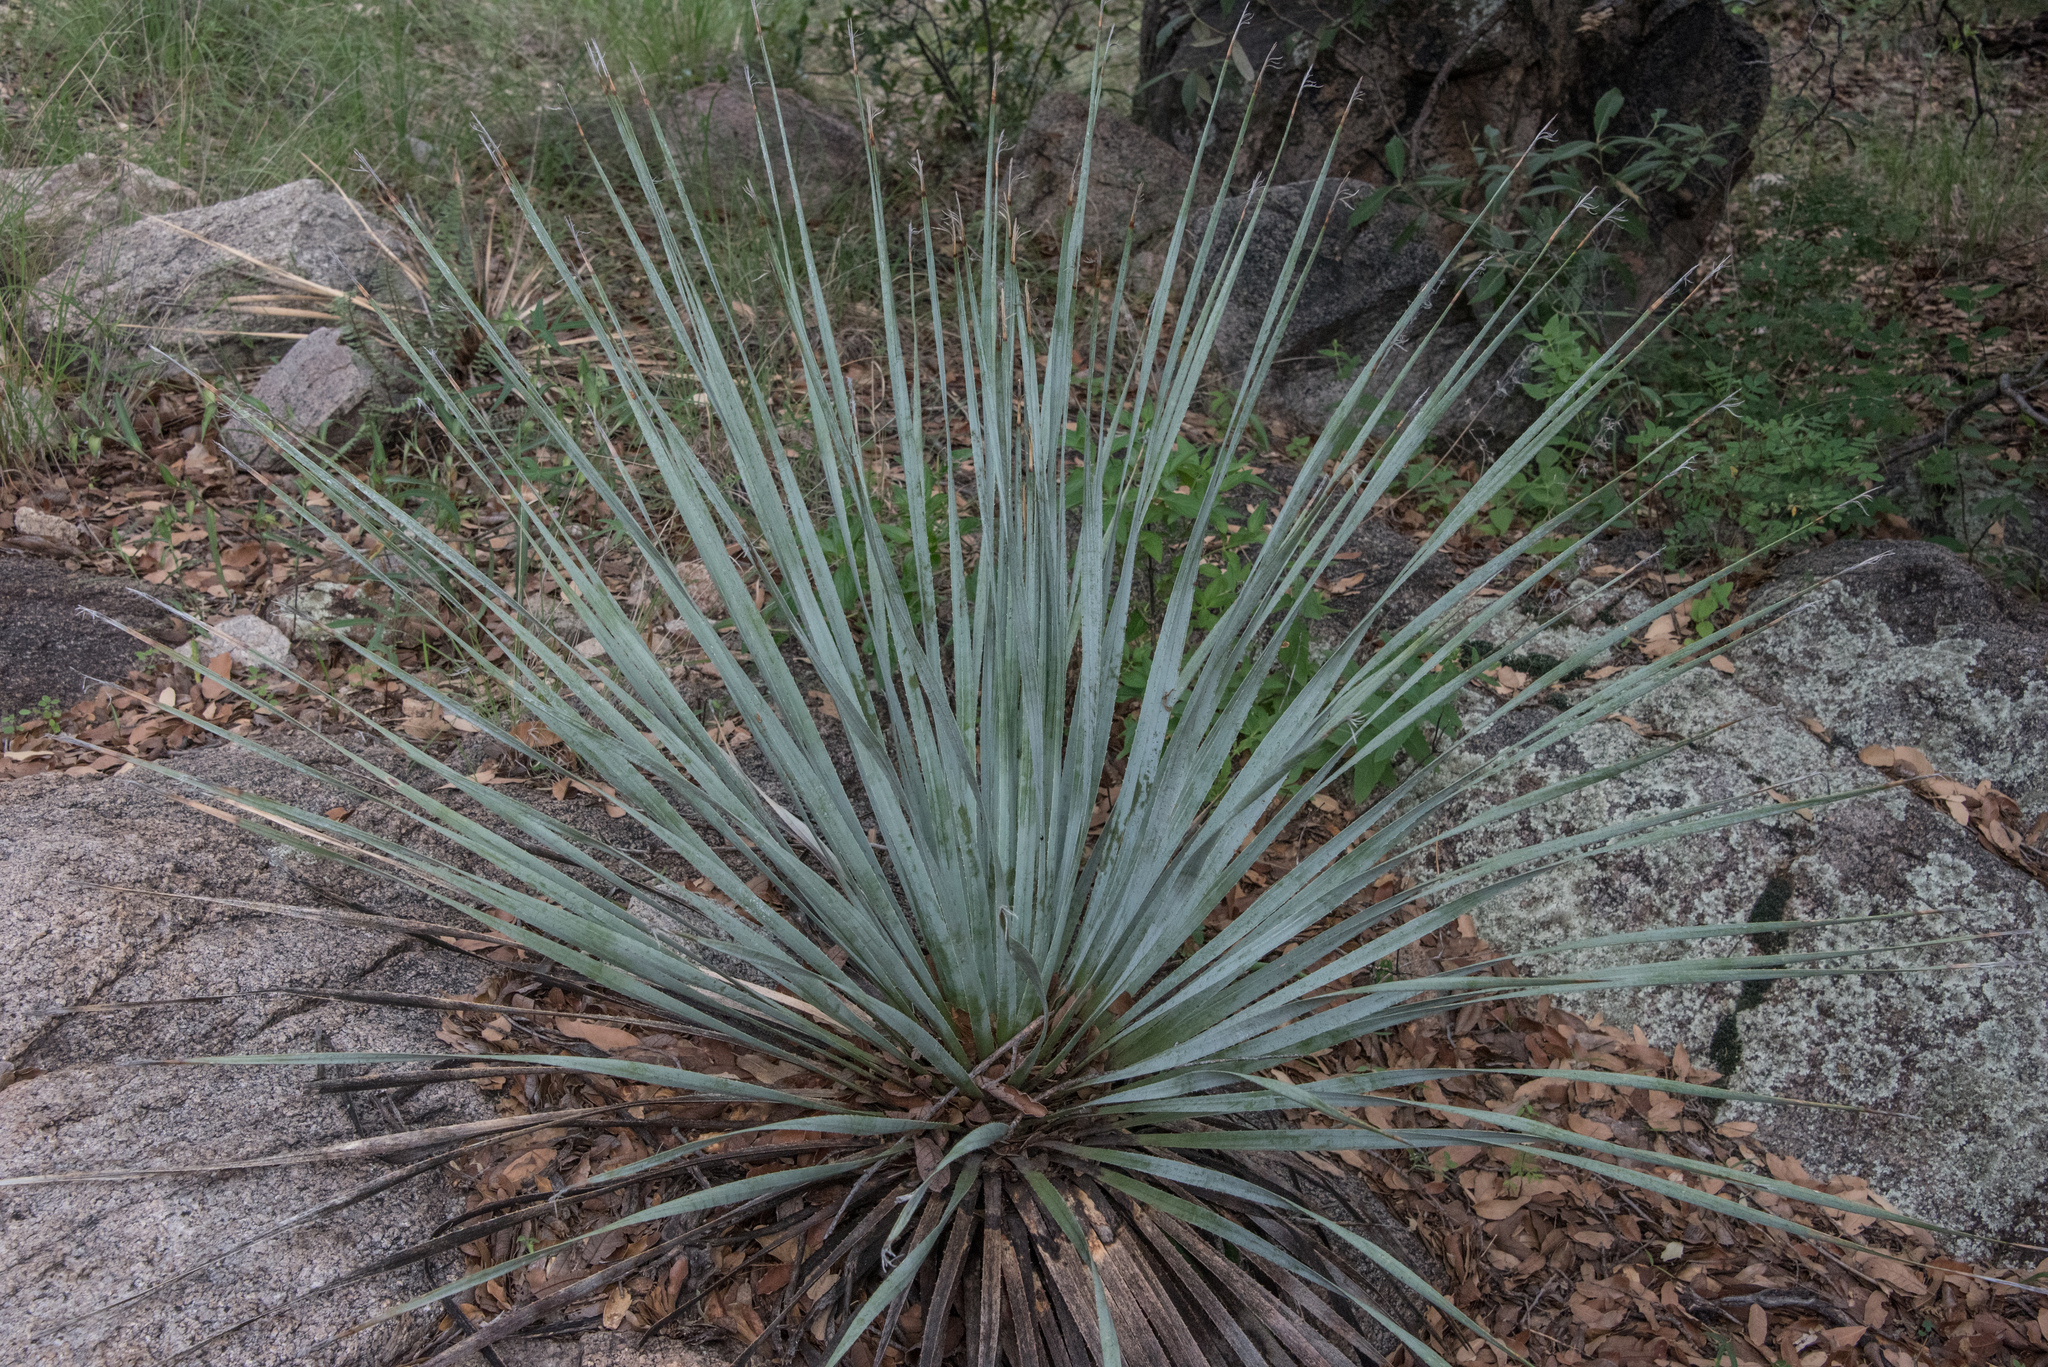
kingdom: Plantae
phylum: Tracheophyta
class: Liliopsida
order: Asparagales
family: Asparagaceae
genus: Dasylirion
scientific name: Dasylirion wheeleri
